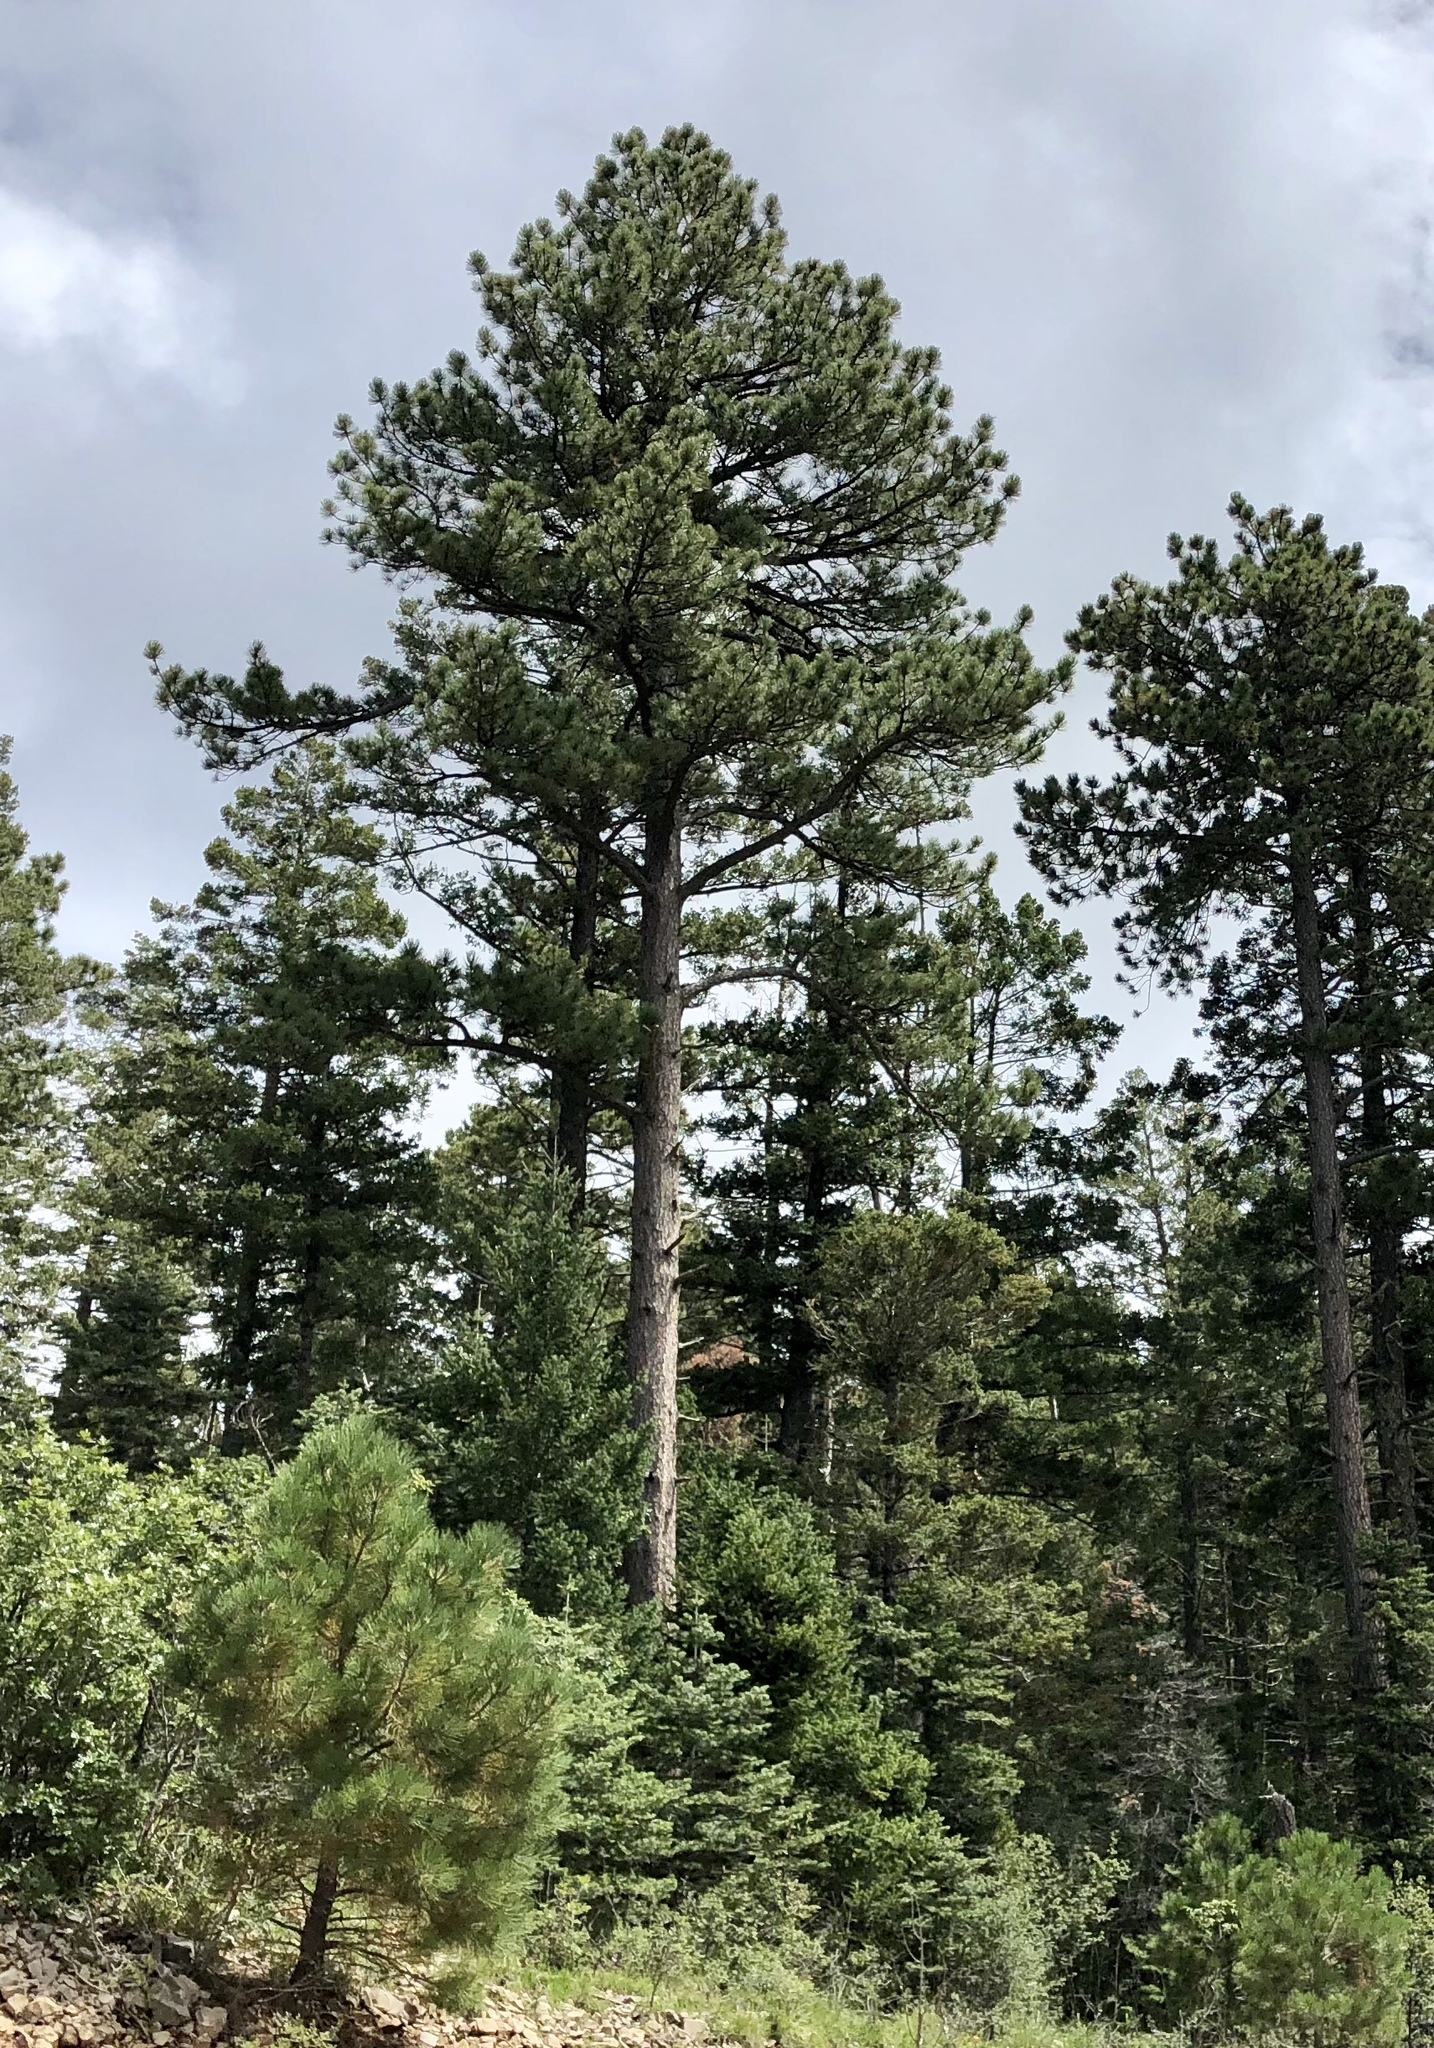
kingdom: Plantae
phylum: Tracheophyta
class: Pinopsida
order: Pinales
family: Pinaceae
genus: Pinus
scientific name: Pinus ponderosa
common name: Western yellow-pine
